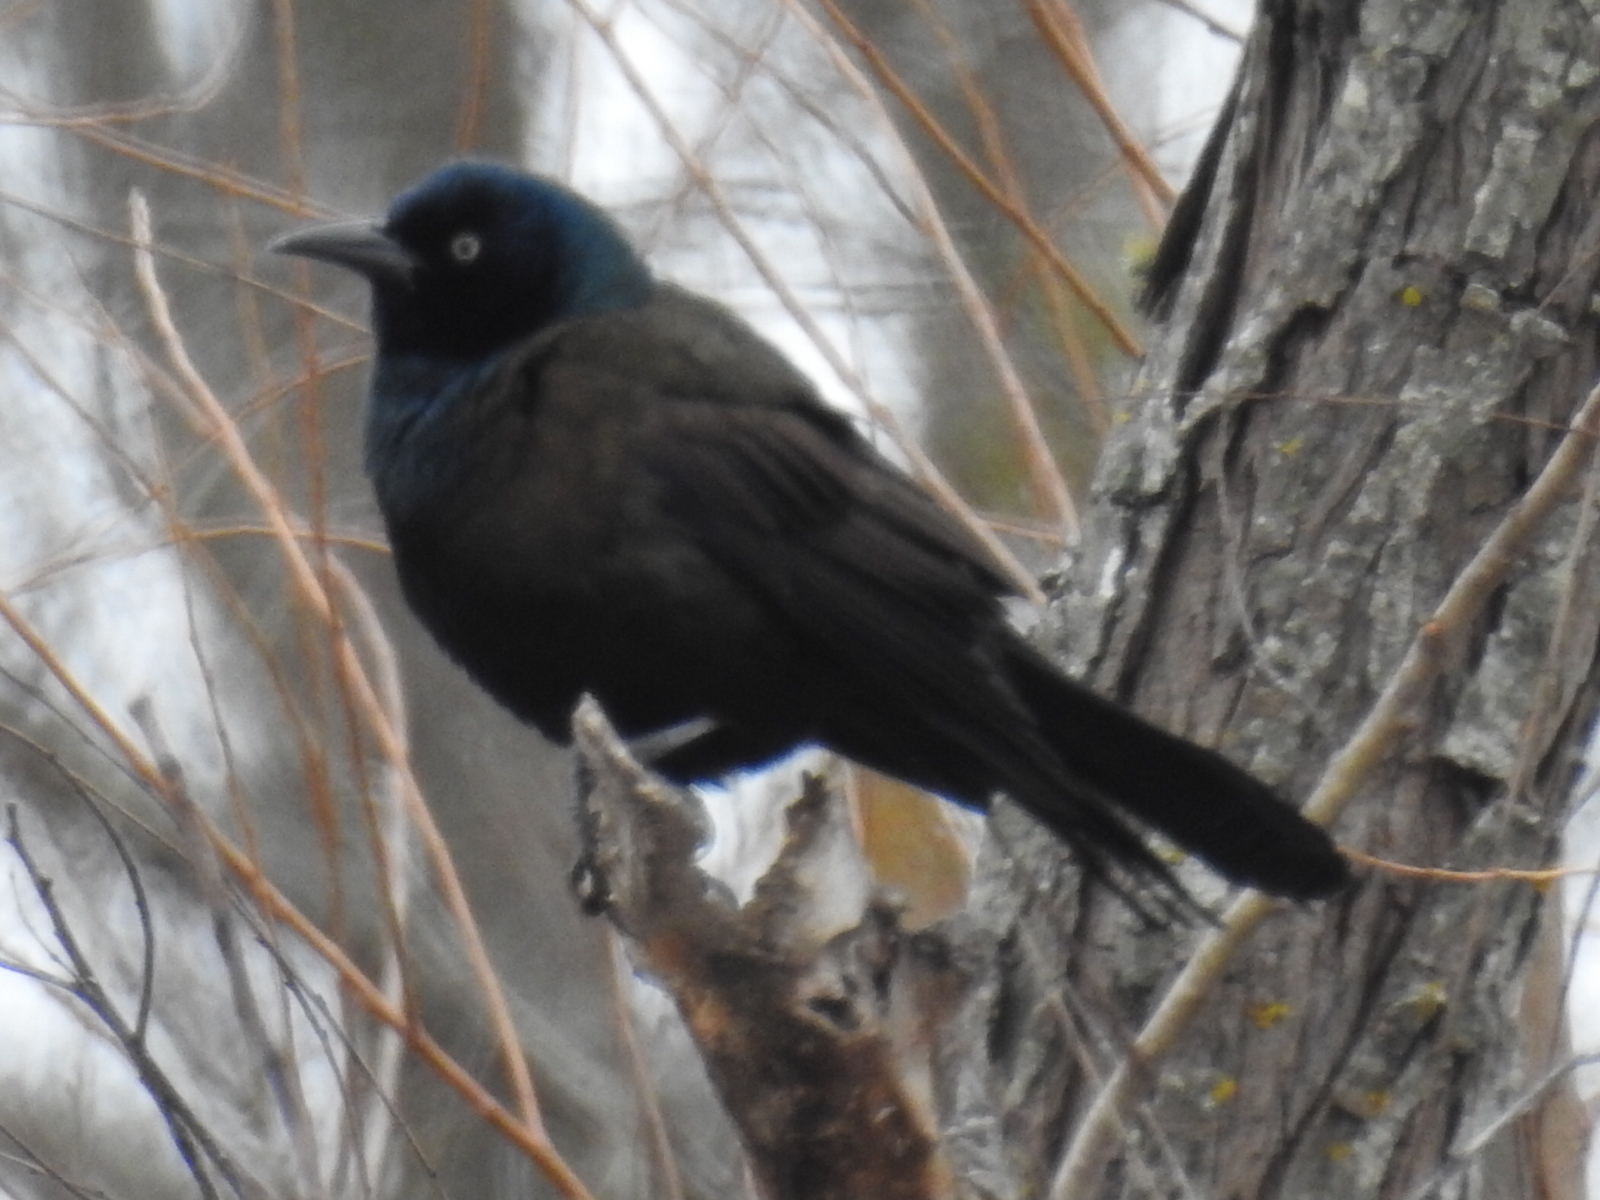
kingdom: Animalia
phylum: Chordata
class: Aves
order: Passeriformes
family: Icteridae
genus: Quiscalus
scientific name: Quiscalus quiscula
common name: Common grackle
